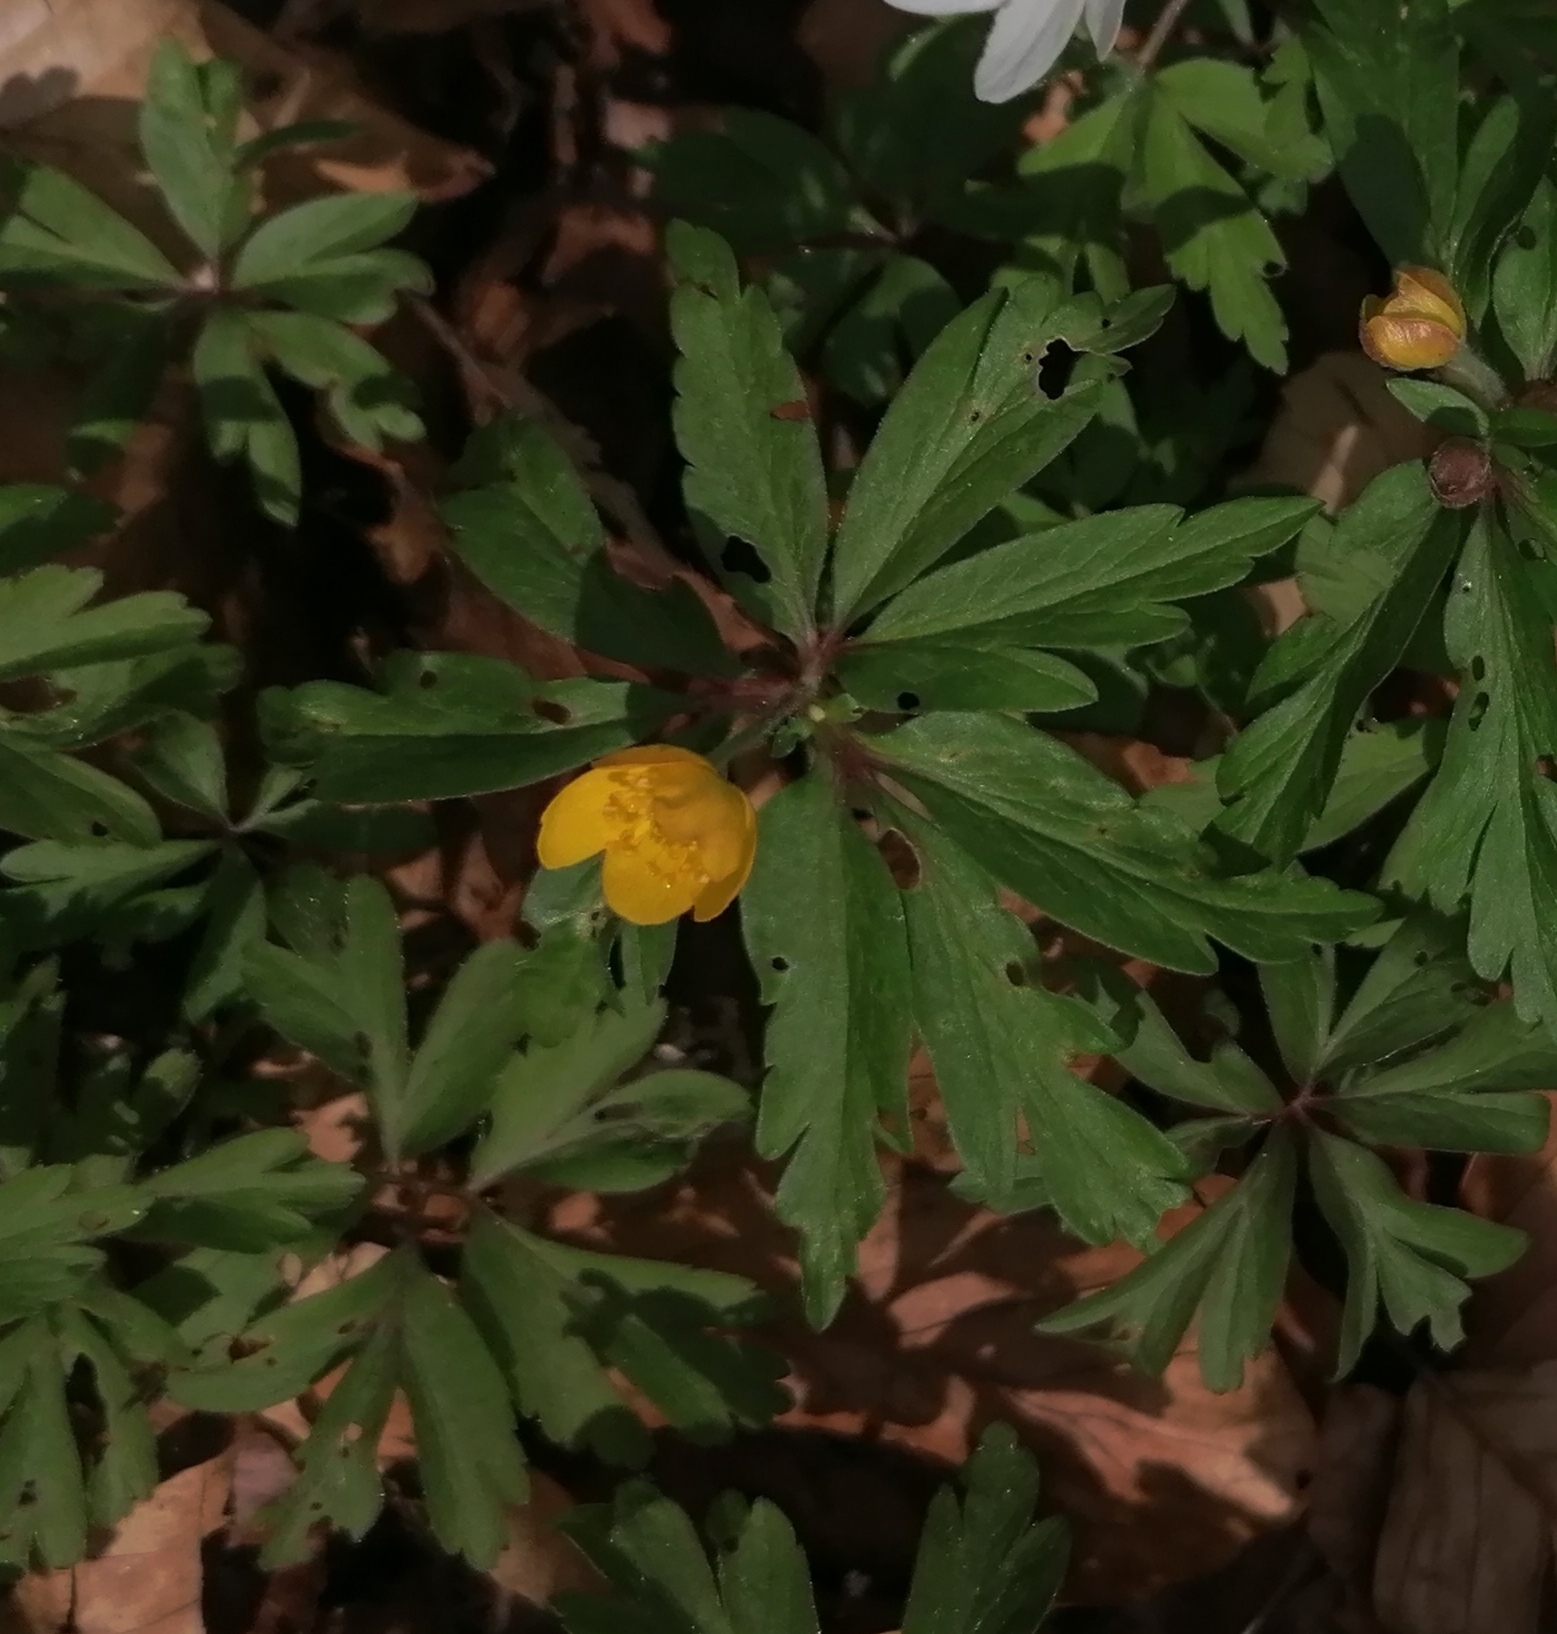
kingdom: Plantae
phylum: Tracheophyta
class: Magnoliopsida
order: Ranunculales
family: Ranunculaceae
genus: Anemone
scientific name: Anemone ranunculoides
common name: Yellow anemone
